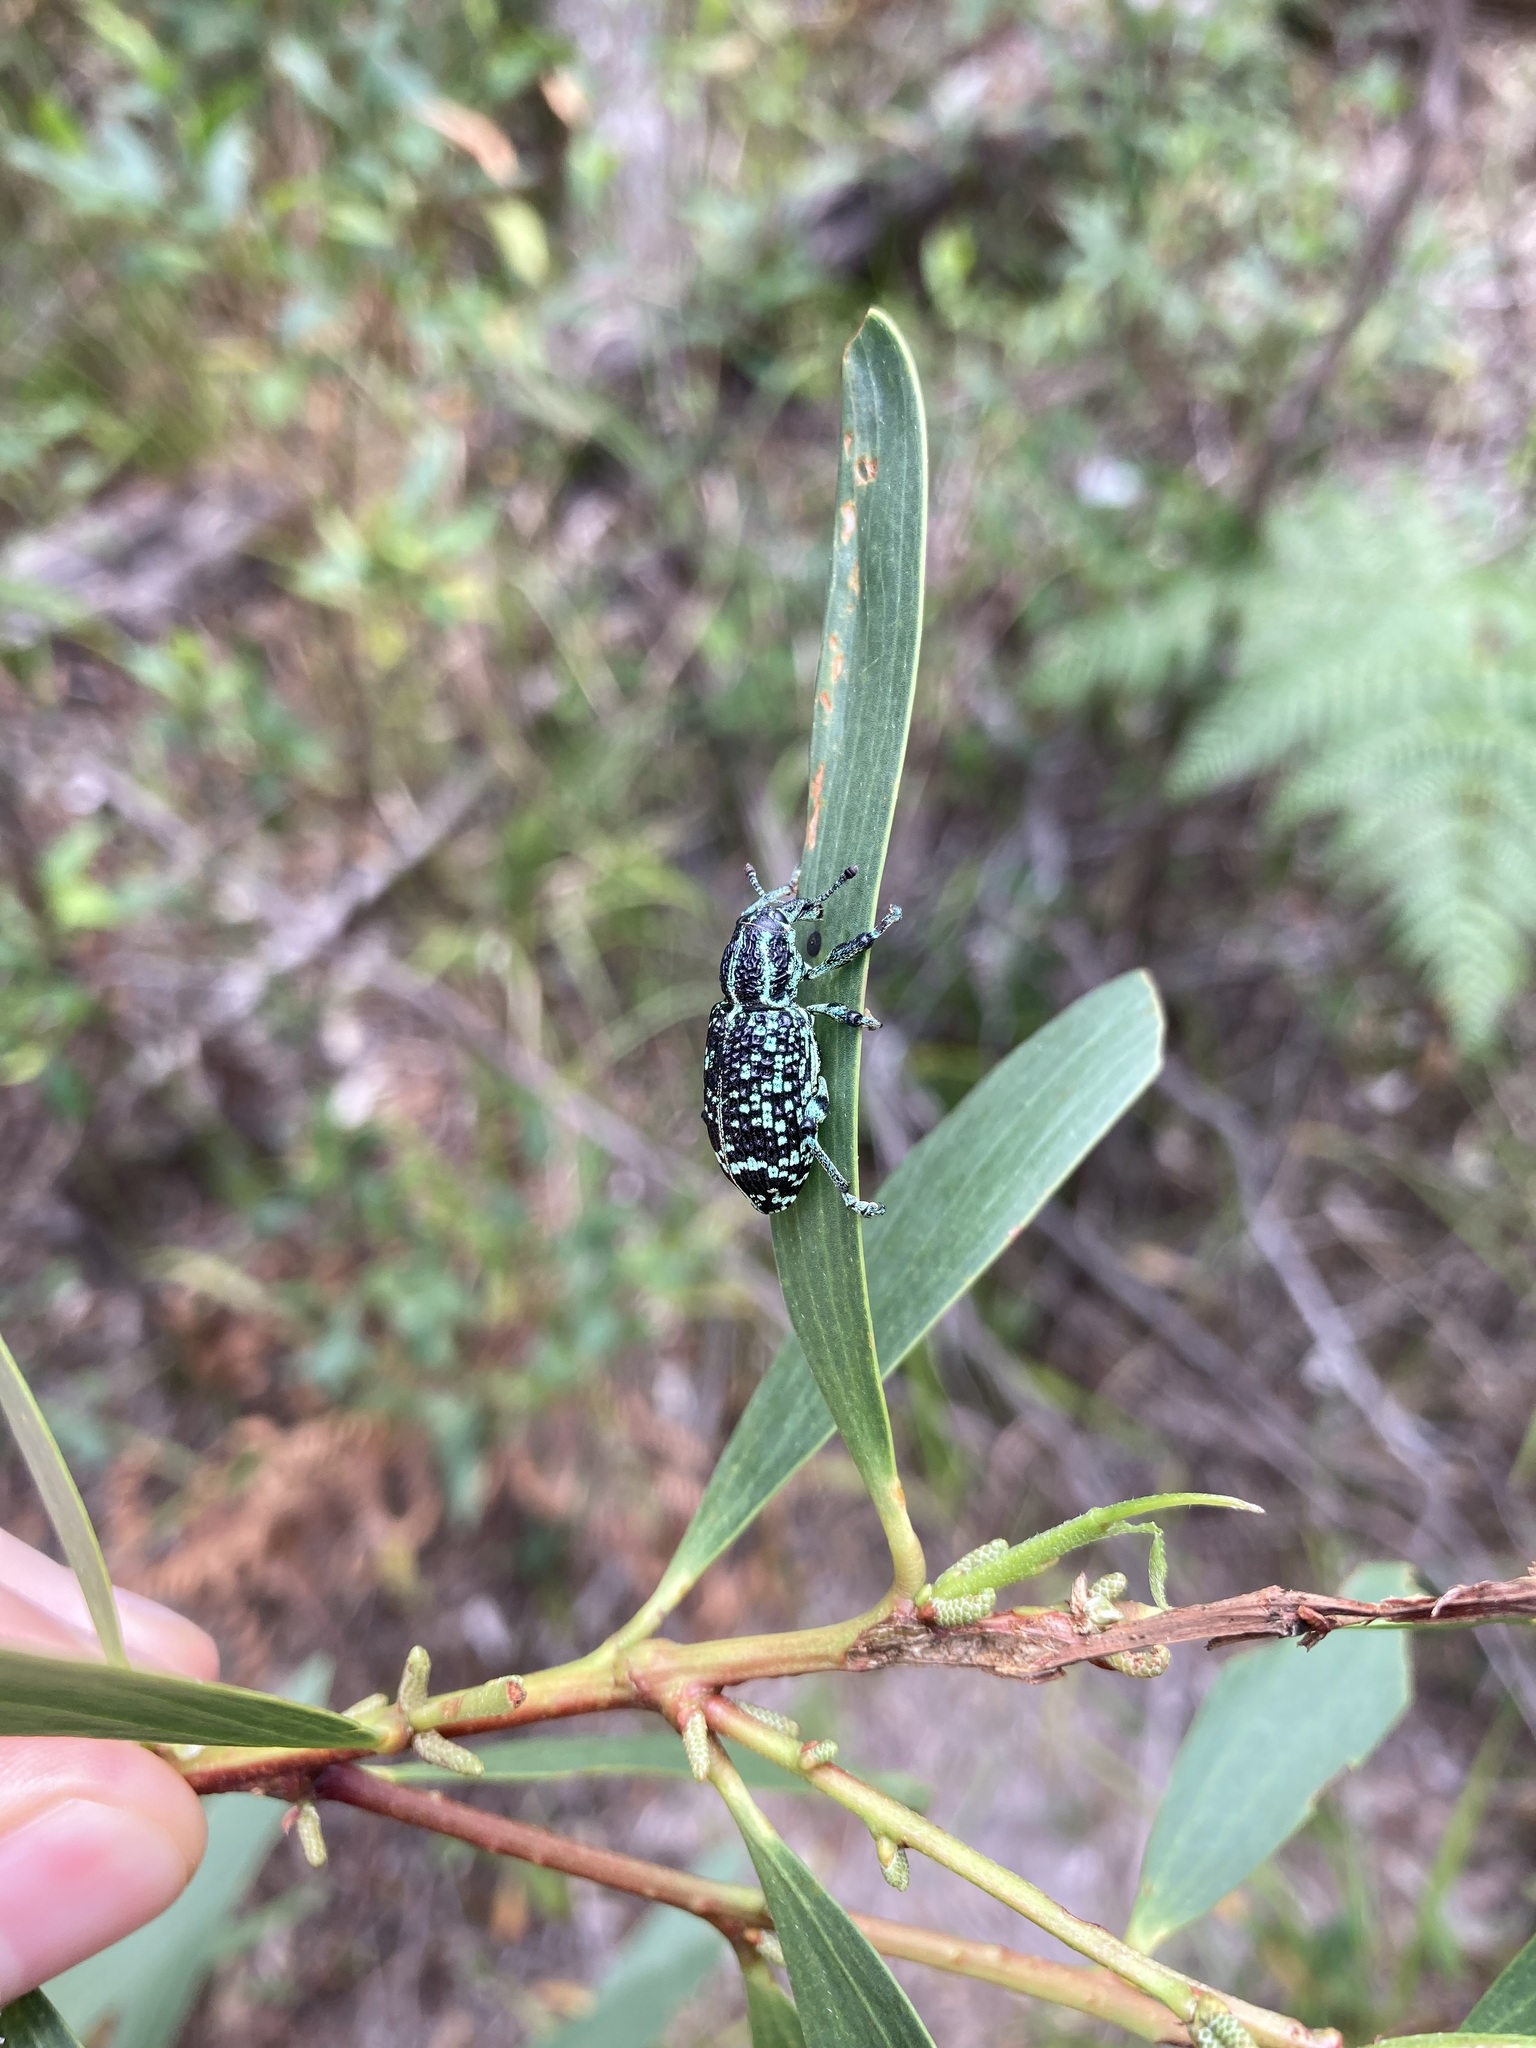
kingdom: Animalia
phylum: Arthropoda
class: Insecta
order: Coleoptera
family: Curculionidae
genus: Chrysolopus
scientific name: Chrysolopus spectabilis
